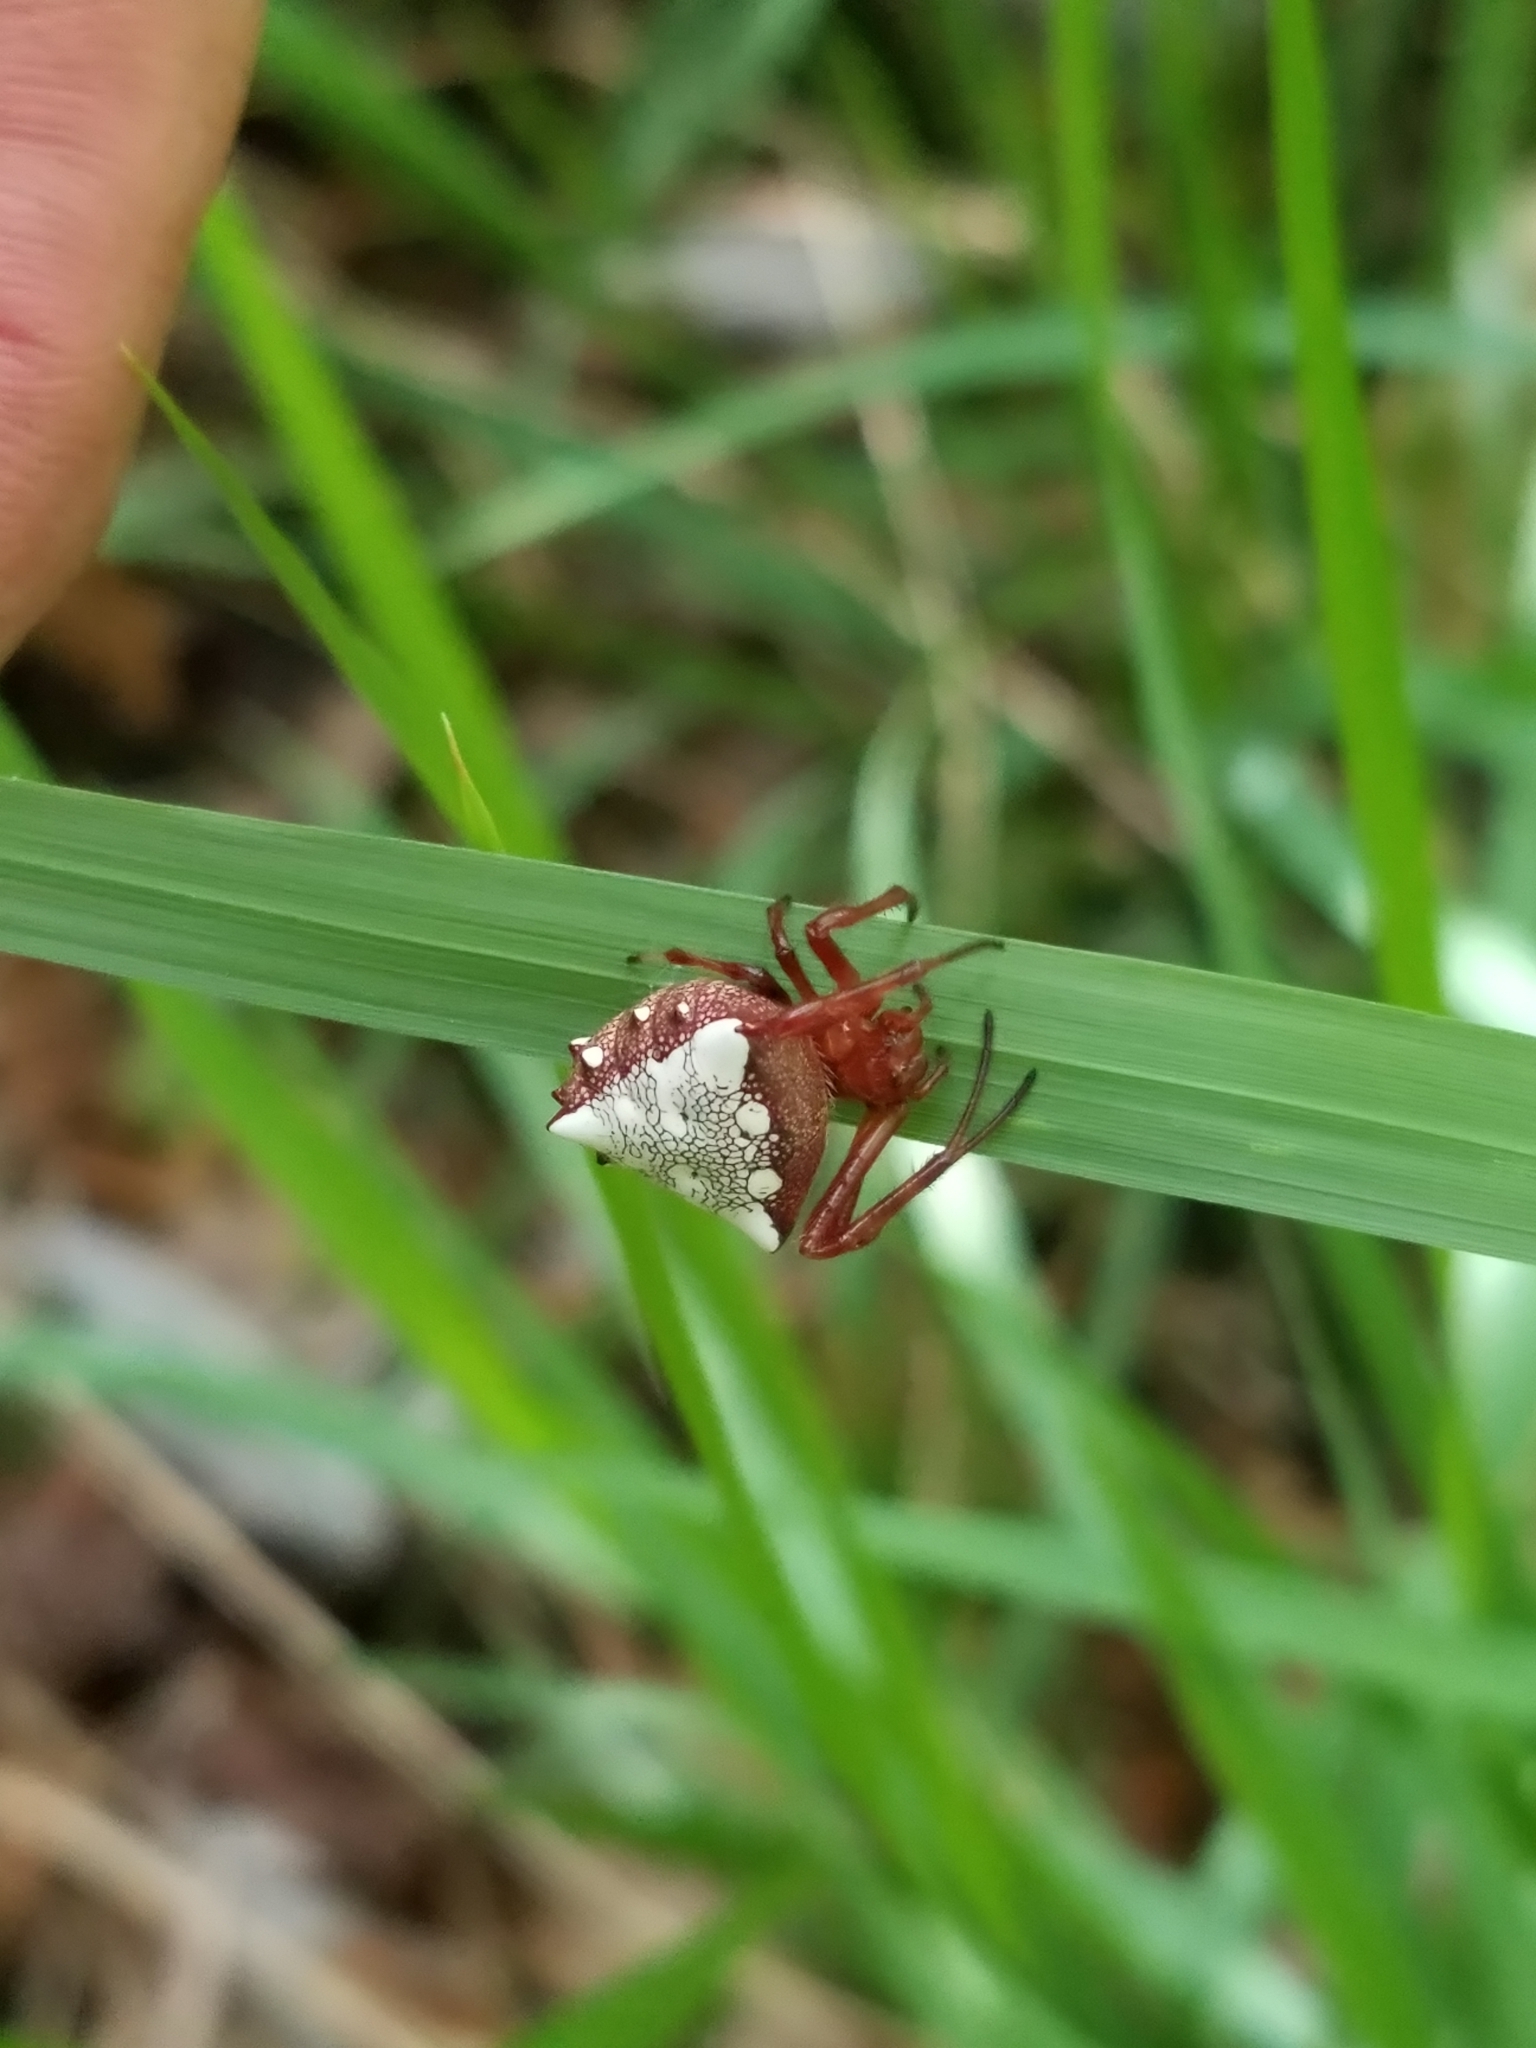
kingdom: Animalia
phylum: Arthropoda
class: Arachnida
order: Araneae
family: Araneidae
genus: Verrucosa
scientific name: Verrucosa arenata
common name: Orb weavers
